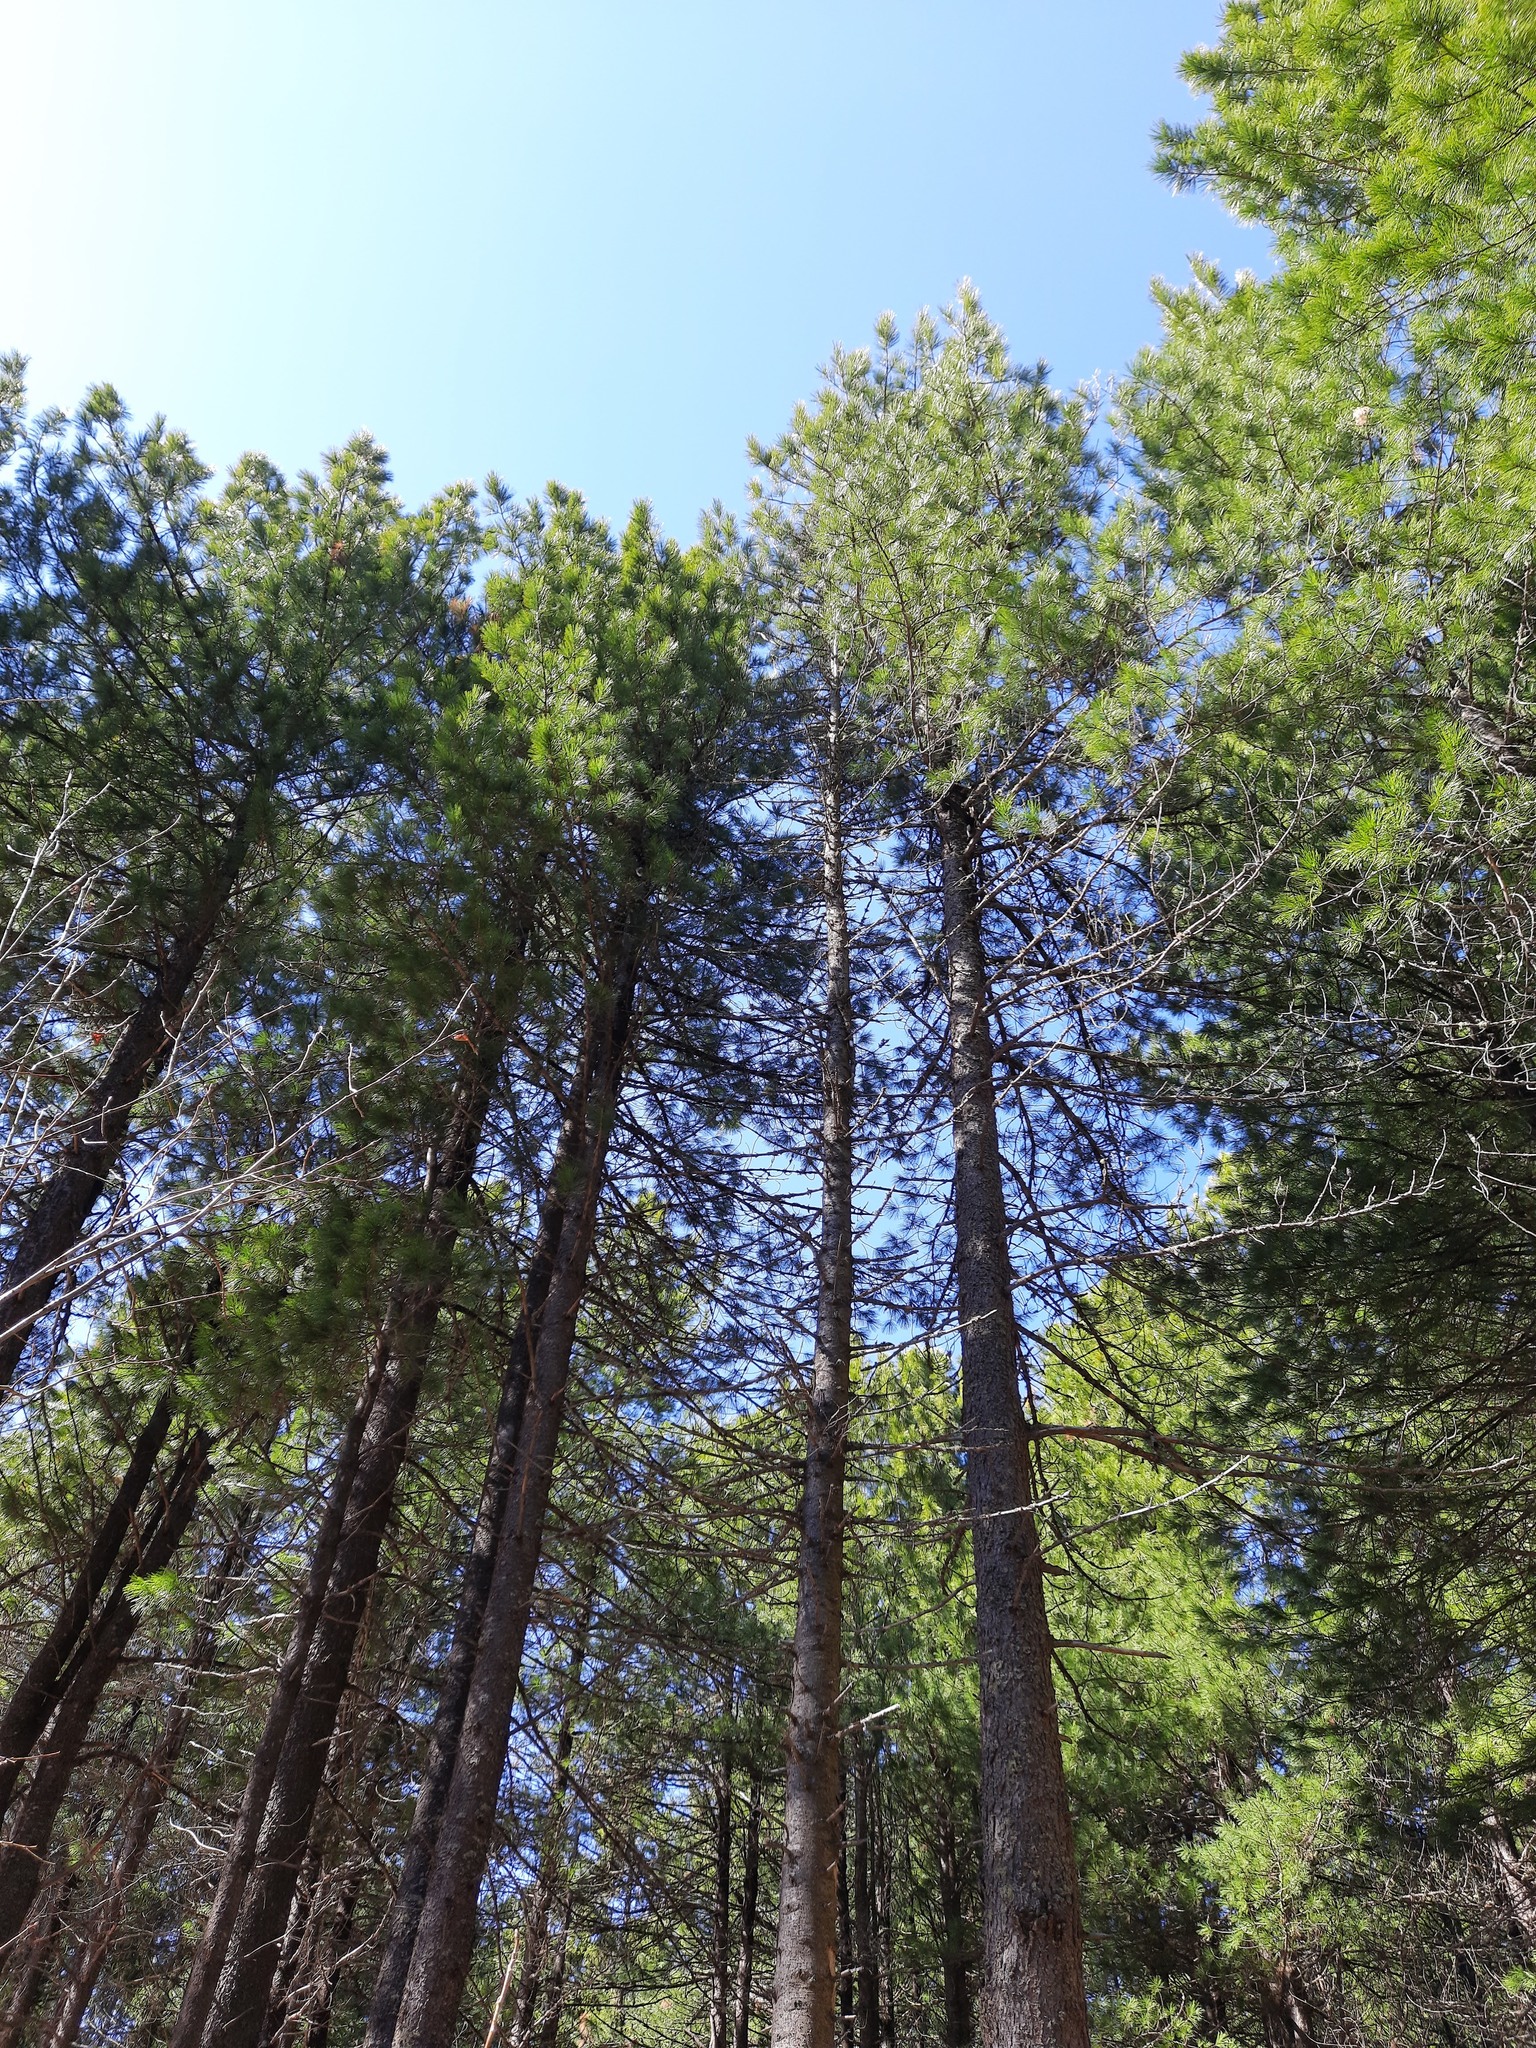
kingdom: Plantae
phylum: Tracheophyta
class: Pinopsida
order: Pinales
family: Pinaceae
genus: Pinus
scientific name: Pinus sibirica
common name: Siberian pine
